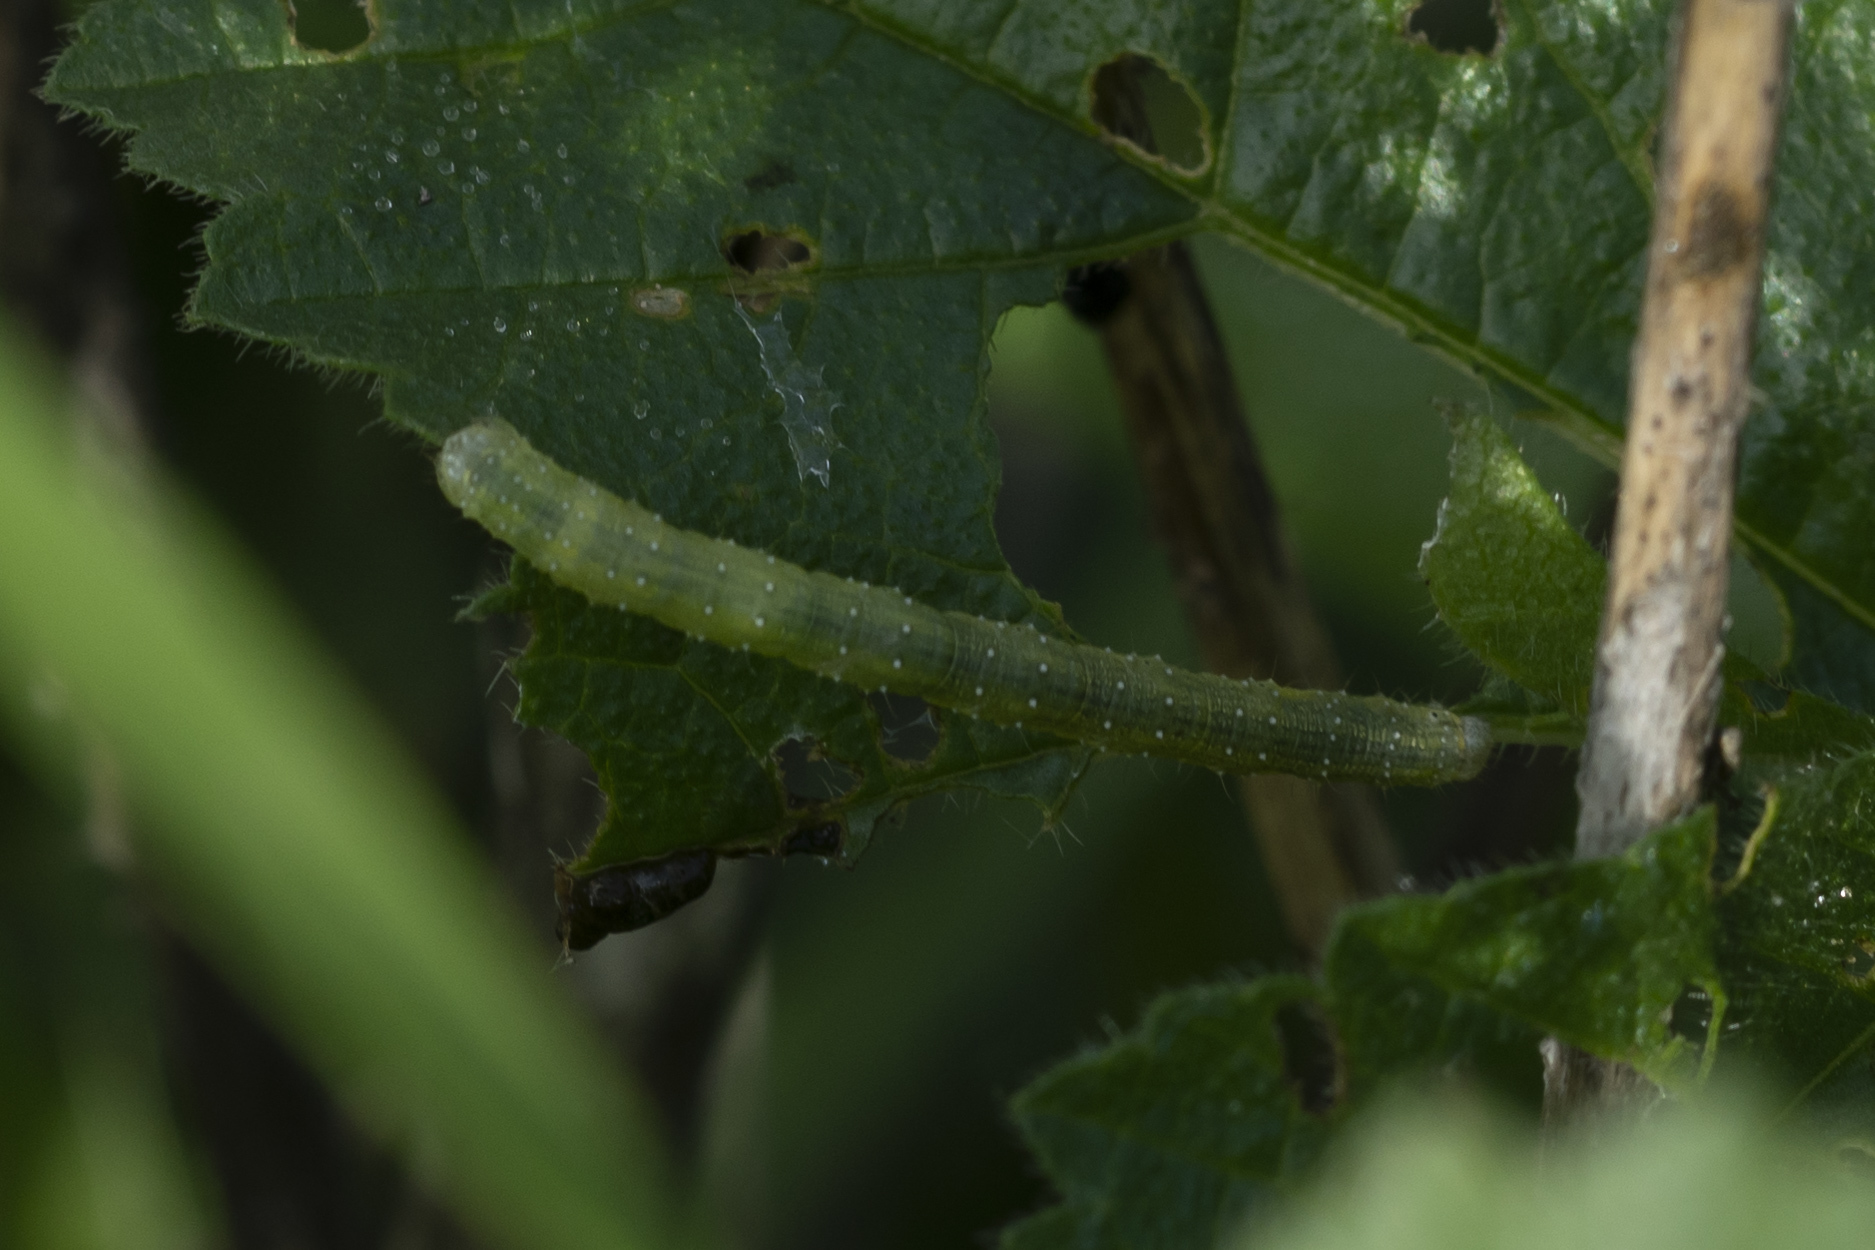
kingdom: Animalia
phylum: Arthropoda
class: Insecta
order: Lepidoptera
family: Geometridae
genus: Larentia
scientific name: Larentia clavaria
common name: Mallow
